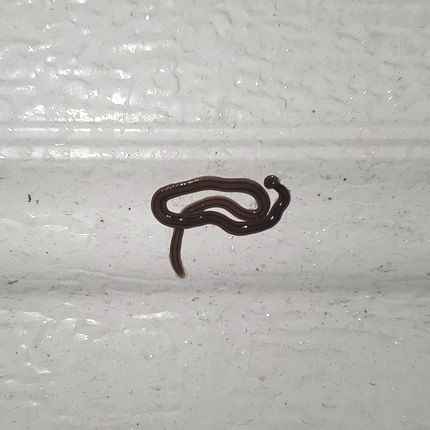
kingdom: Animalia
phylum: Platyhelminthes
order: Tricladida
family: Geoplanidae
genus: Bipalium
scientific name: Bipalium kewense
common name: Hammerhead flatworm
